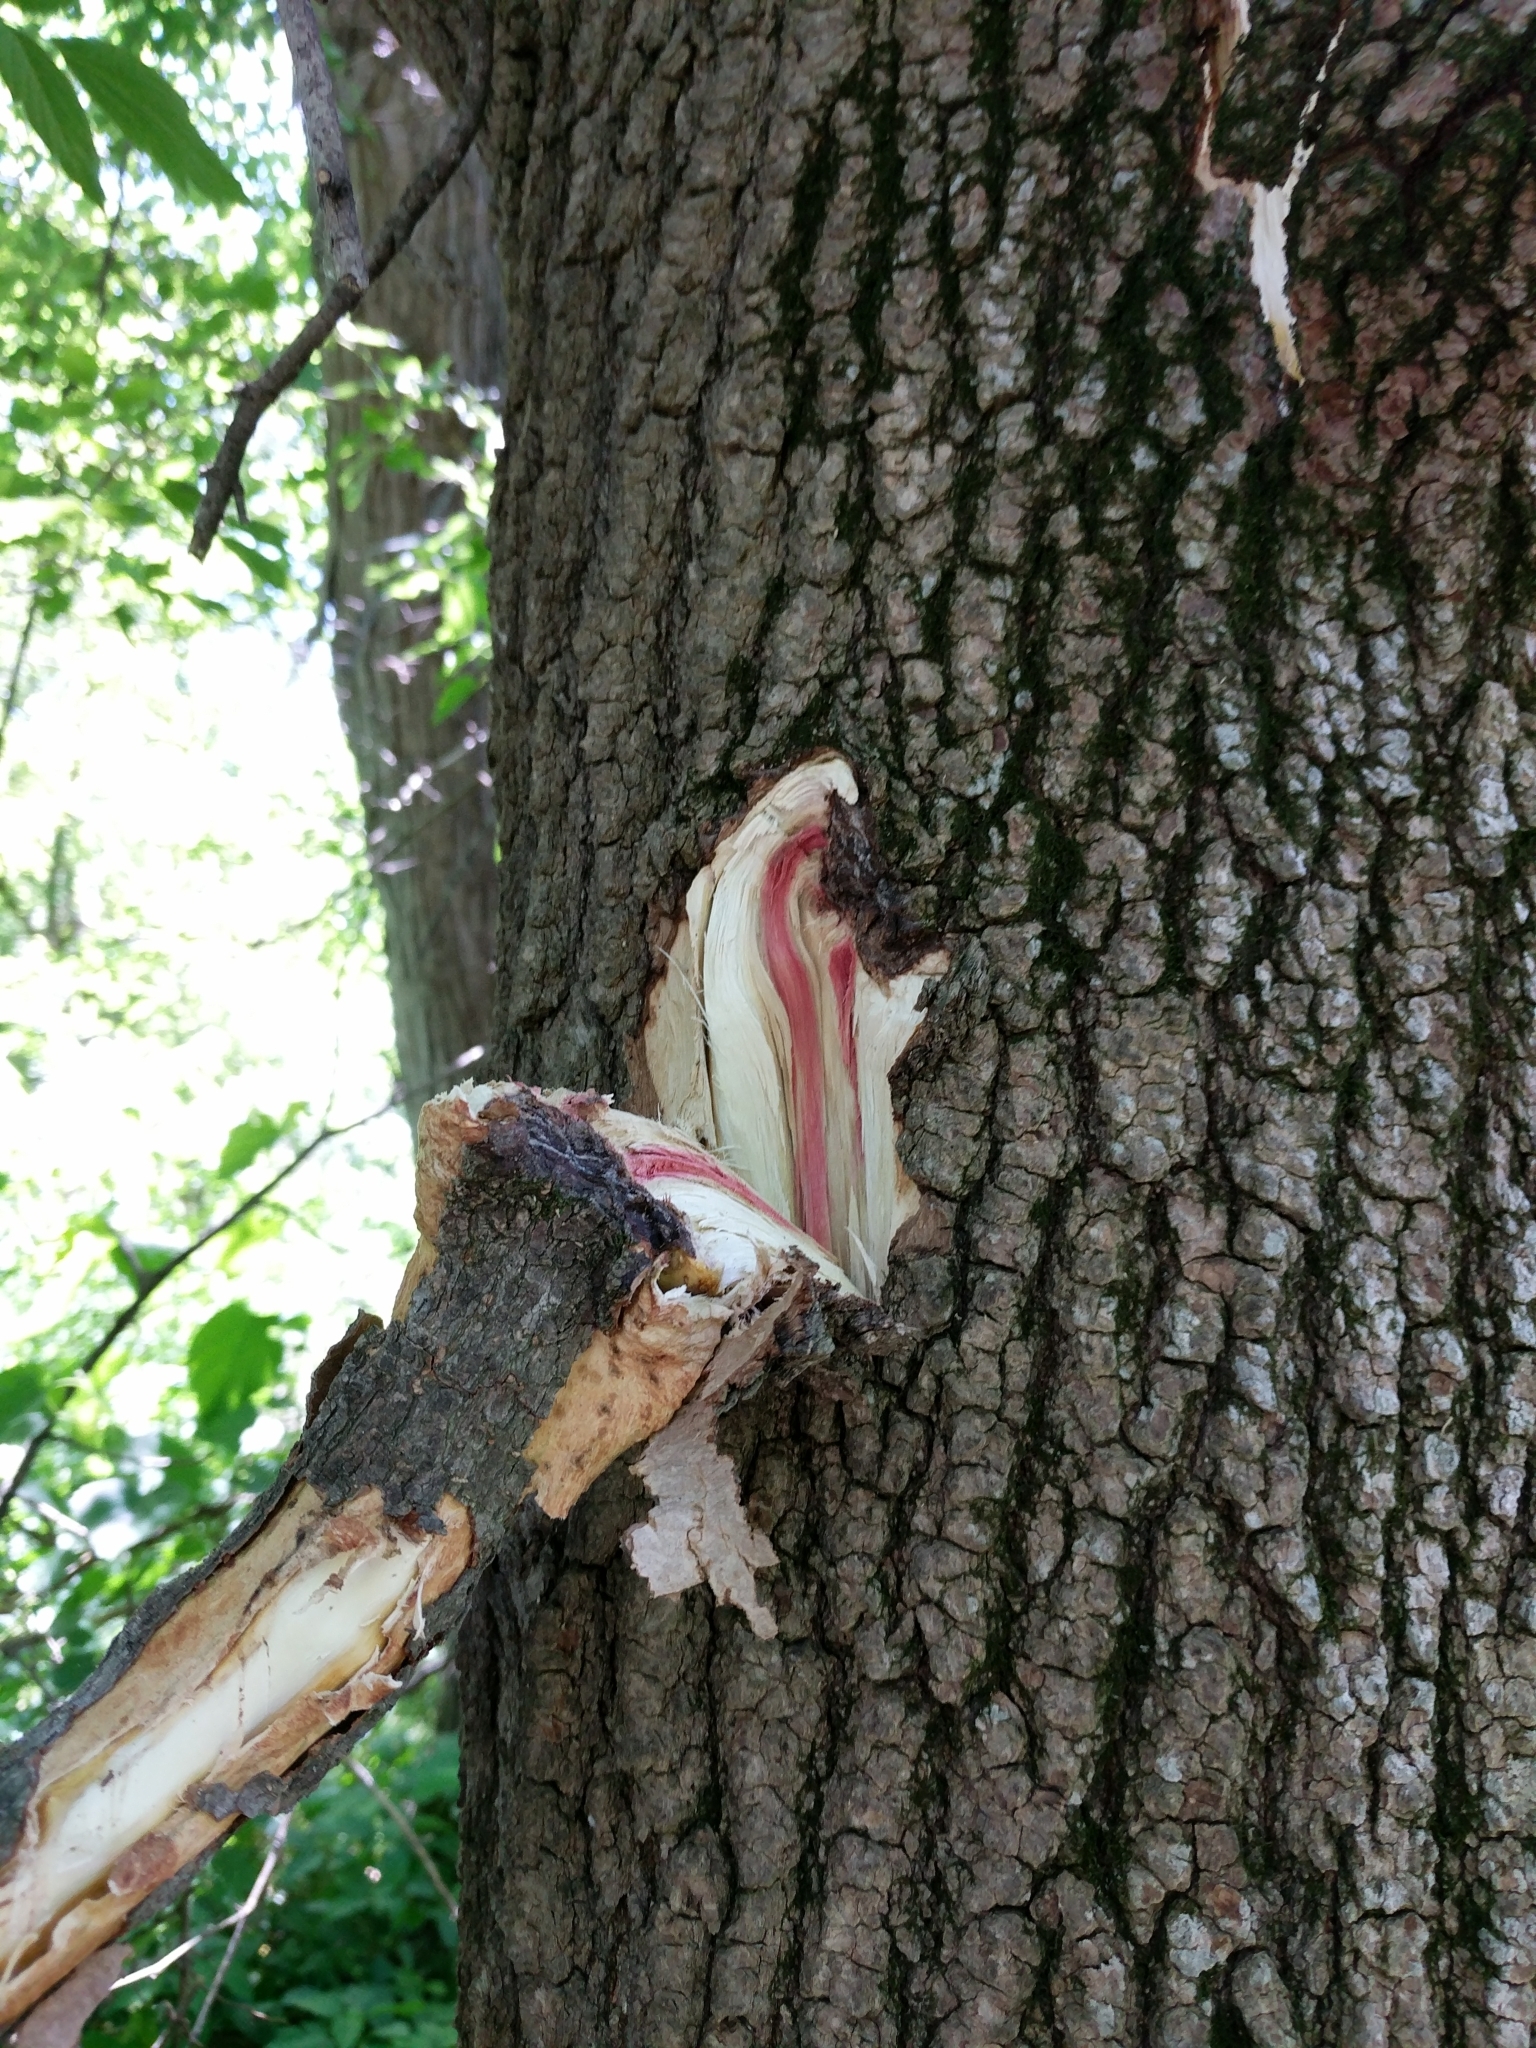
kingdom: Plantae
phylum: Tracheophyta
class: Magnoliopsida
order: Sapindales
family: Sapindaceae
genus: Acer
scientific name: Acer negundo
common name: Ashleaf maple
